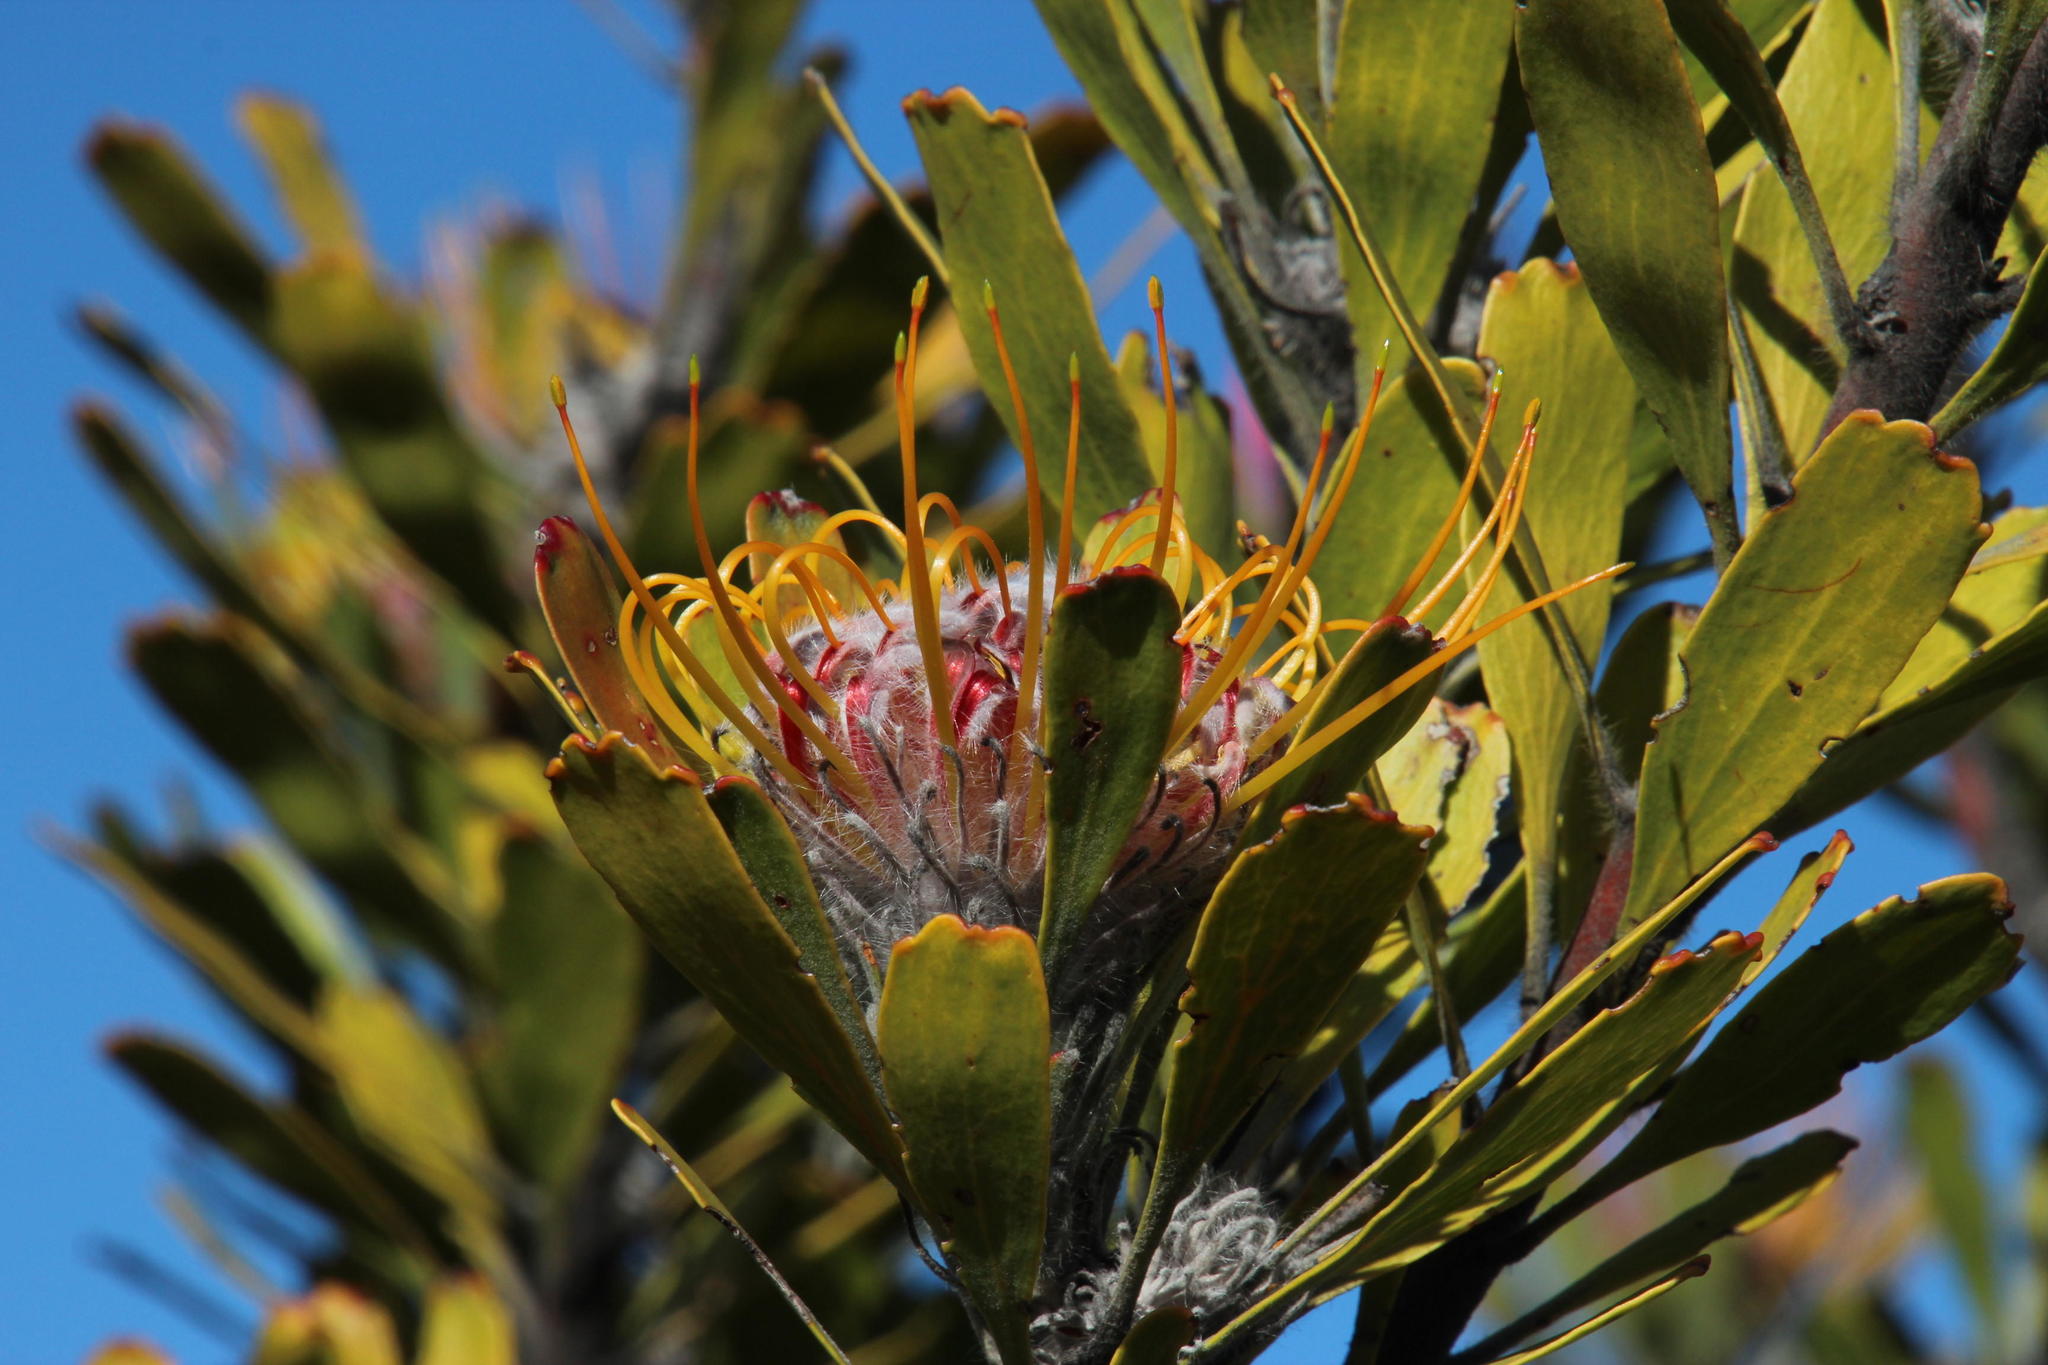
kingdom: Plantae
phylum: Tracheophyta
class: Magnoliopsida
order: Proteales
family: Proteaceae
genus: Leucospermum
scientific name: Leucospermum praemorsum
